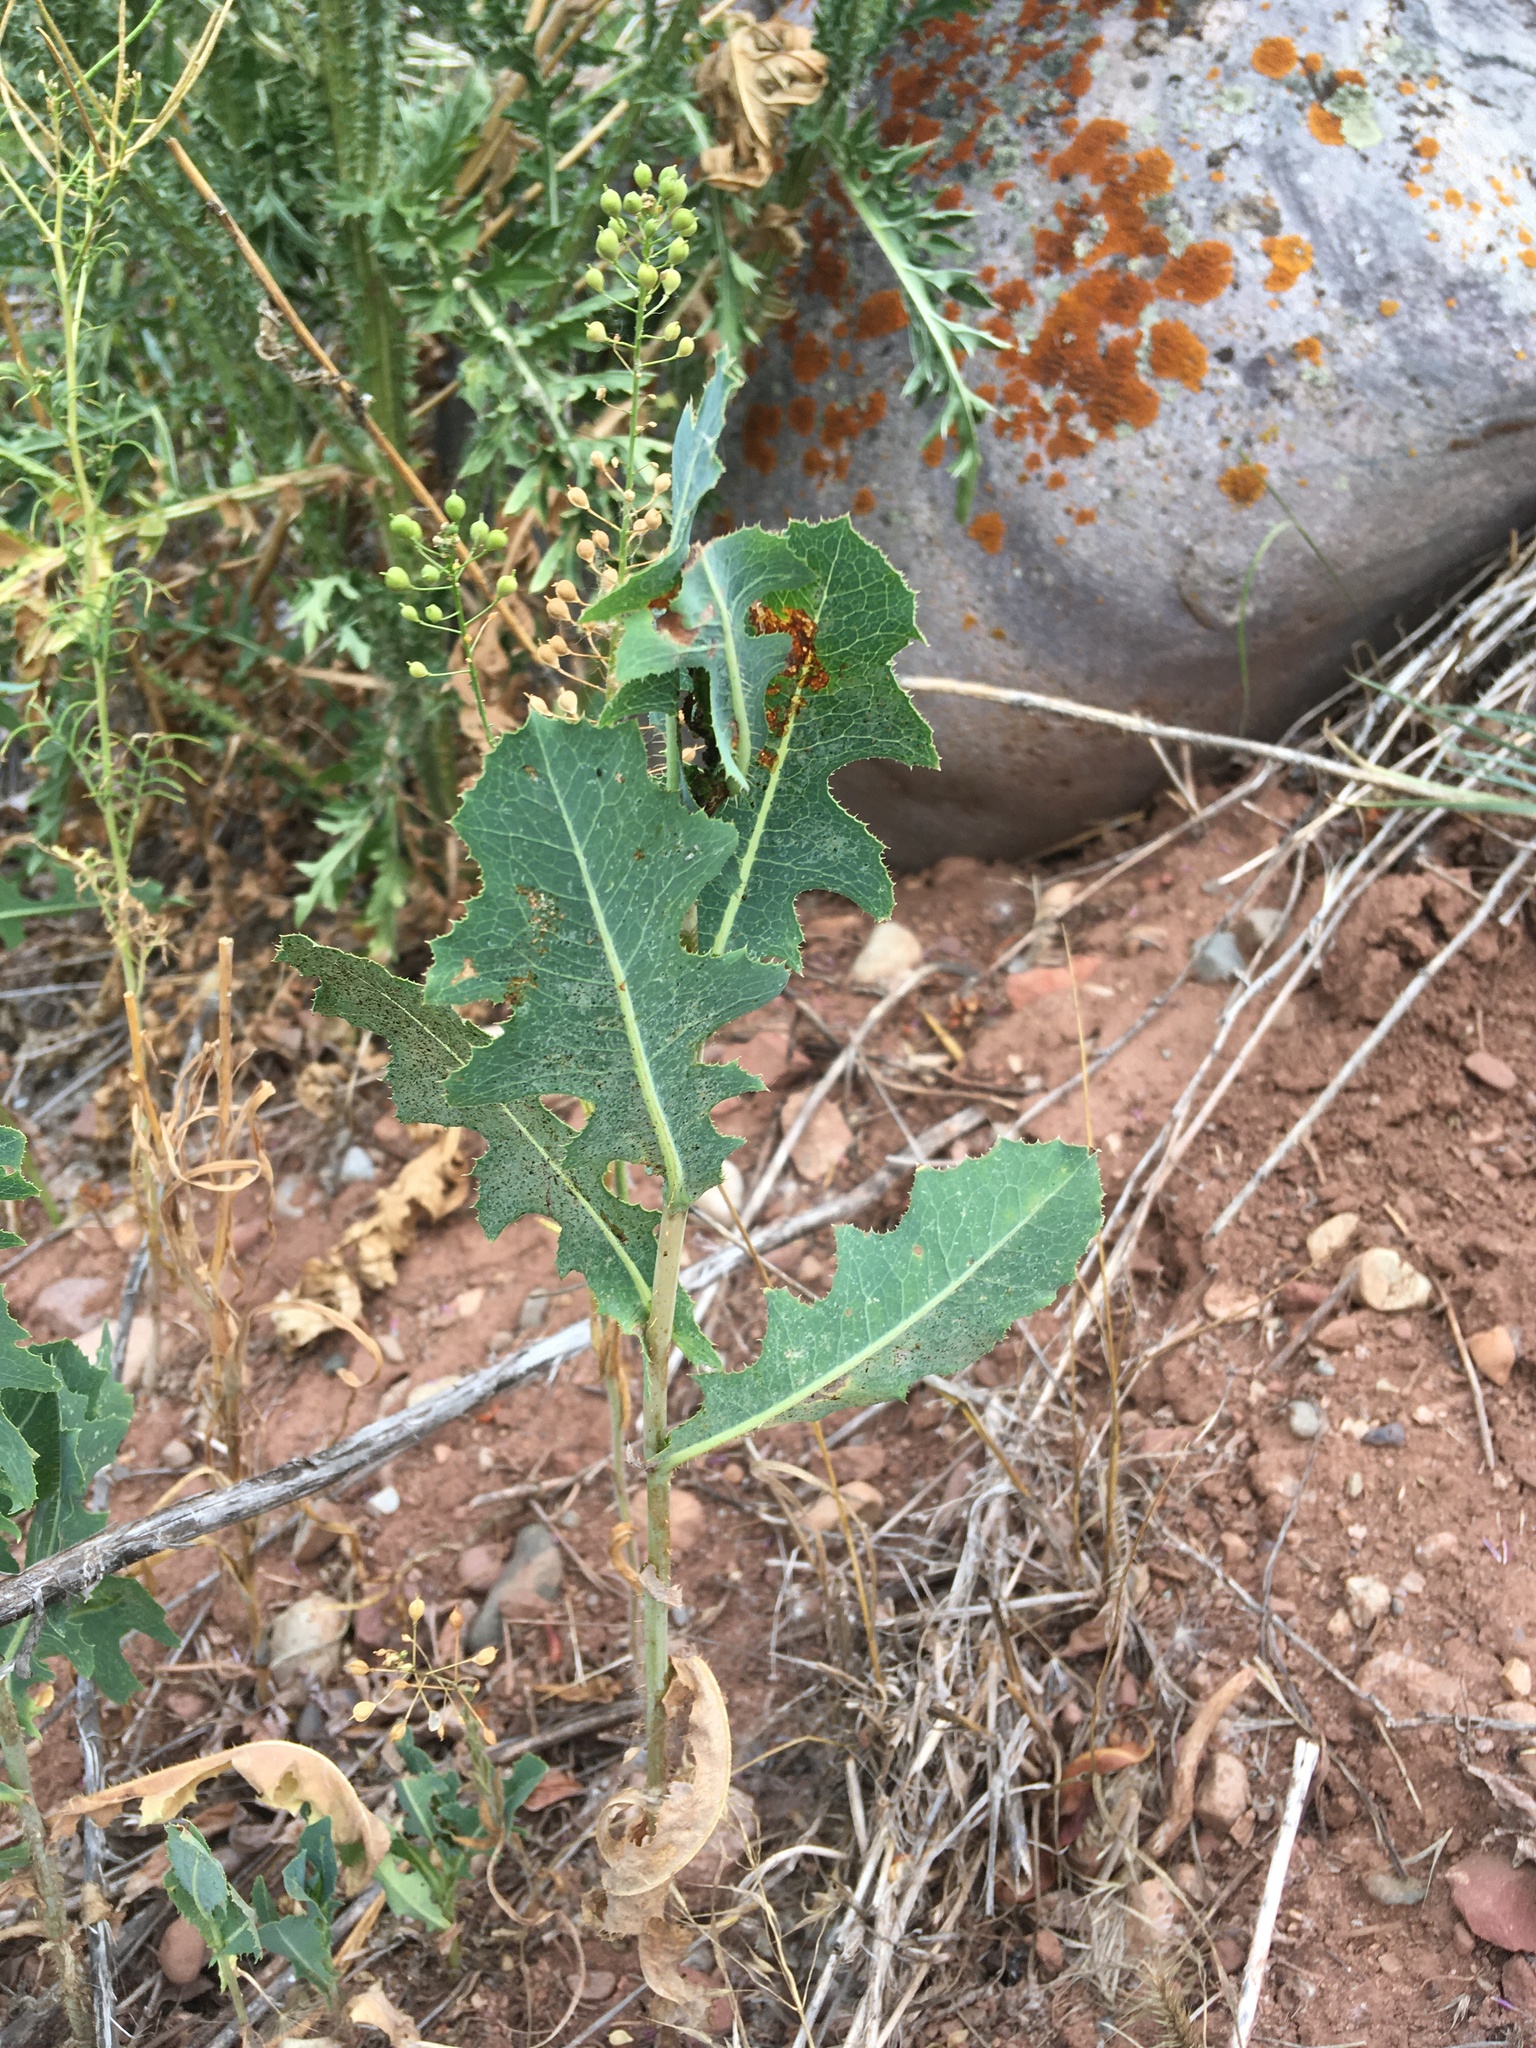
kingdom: Plantae
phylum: Tracheophyta
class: Magnoliopsida
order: Asterales
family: Asteraceae
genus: Lactuca
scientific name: Lactuca serriola
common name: Prickly lettuce
